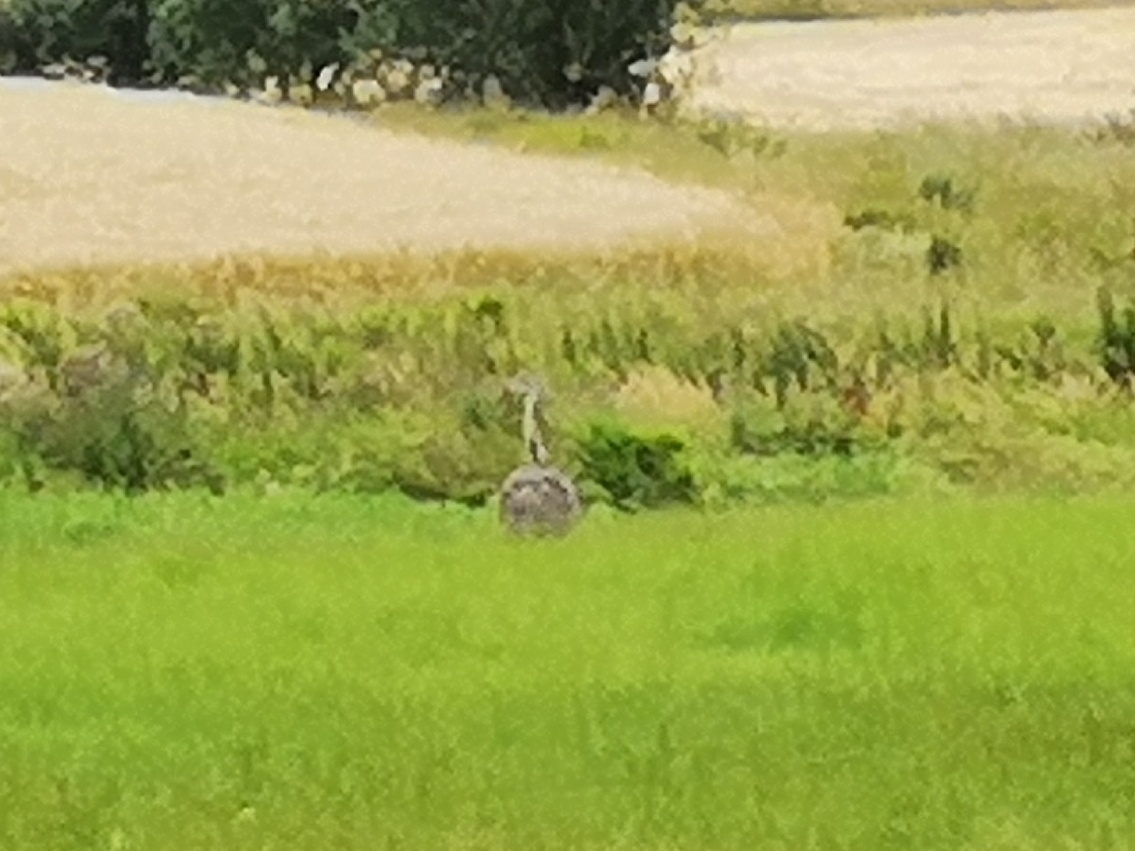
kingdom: Animalia
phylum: Chordata
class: Aves
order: Rheiformes
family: Rheidae
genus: Rhea
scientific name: Rhea americana
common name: Greater rhea
